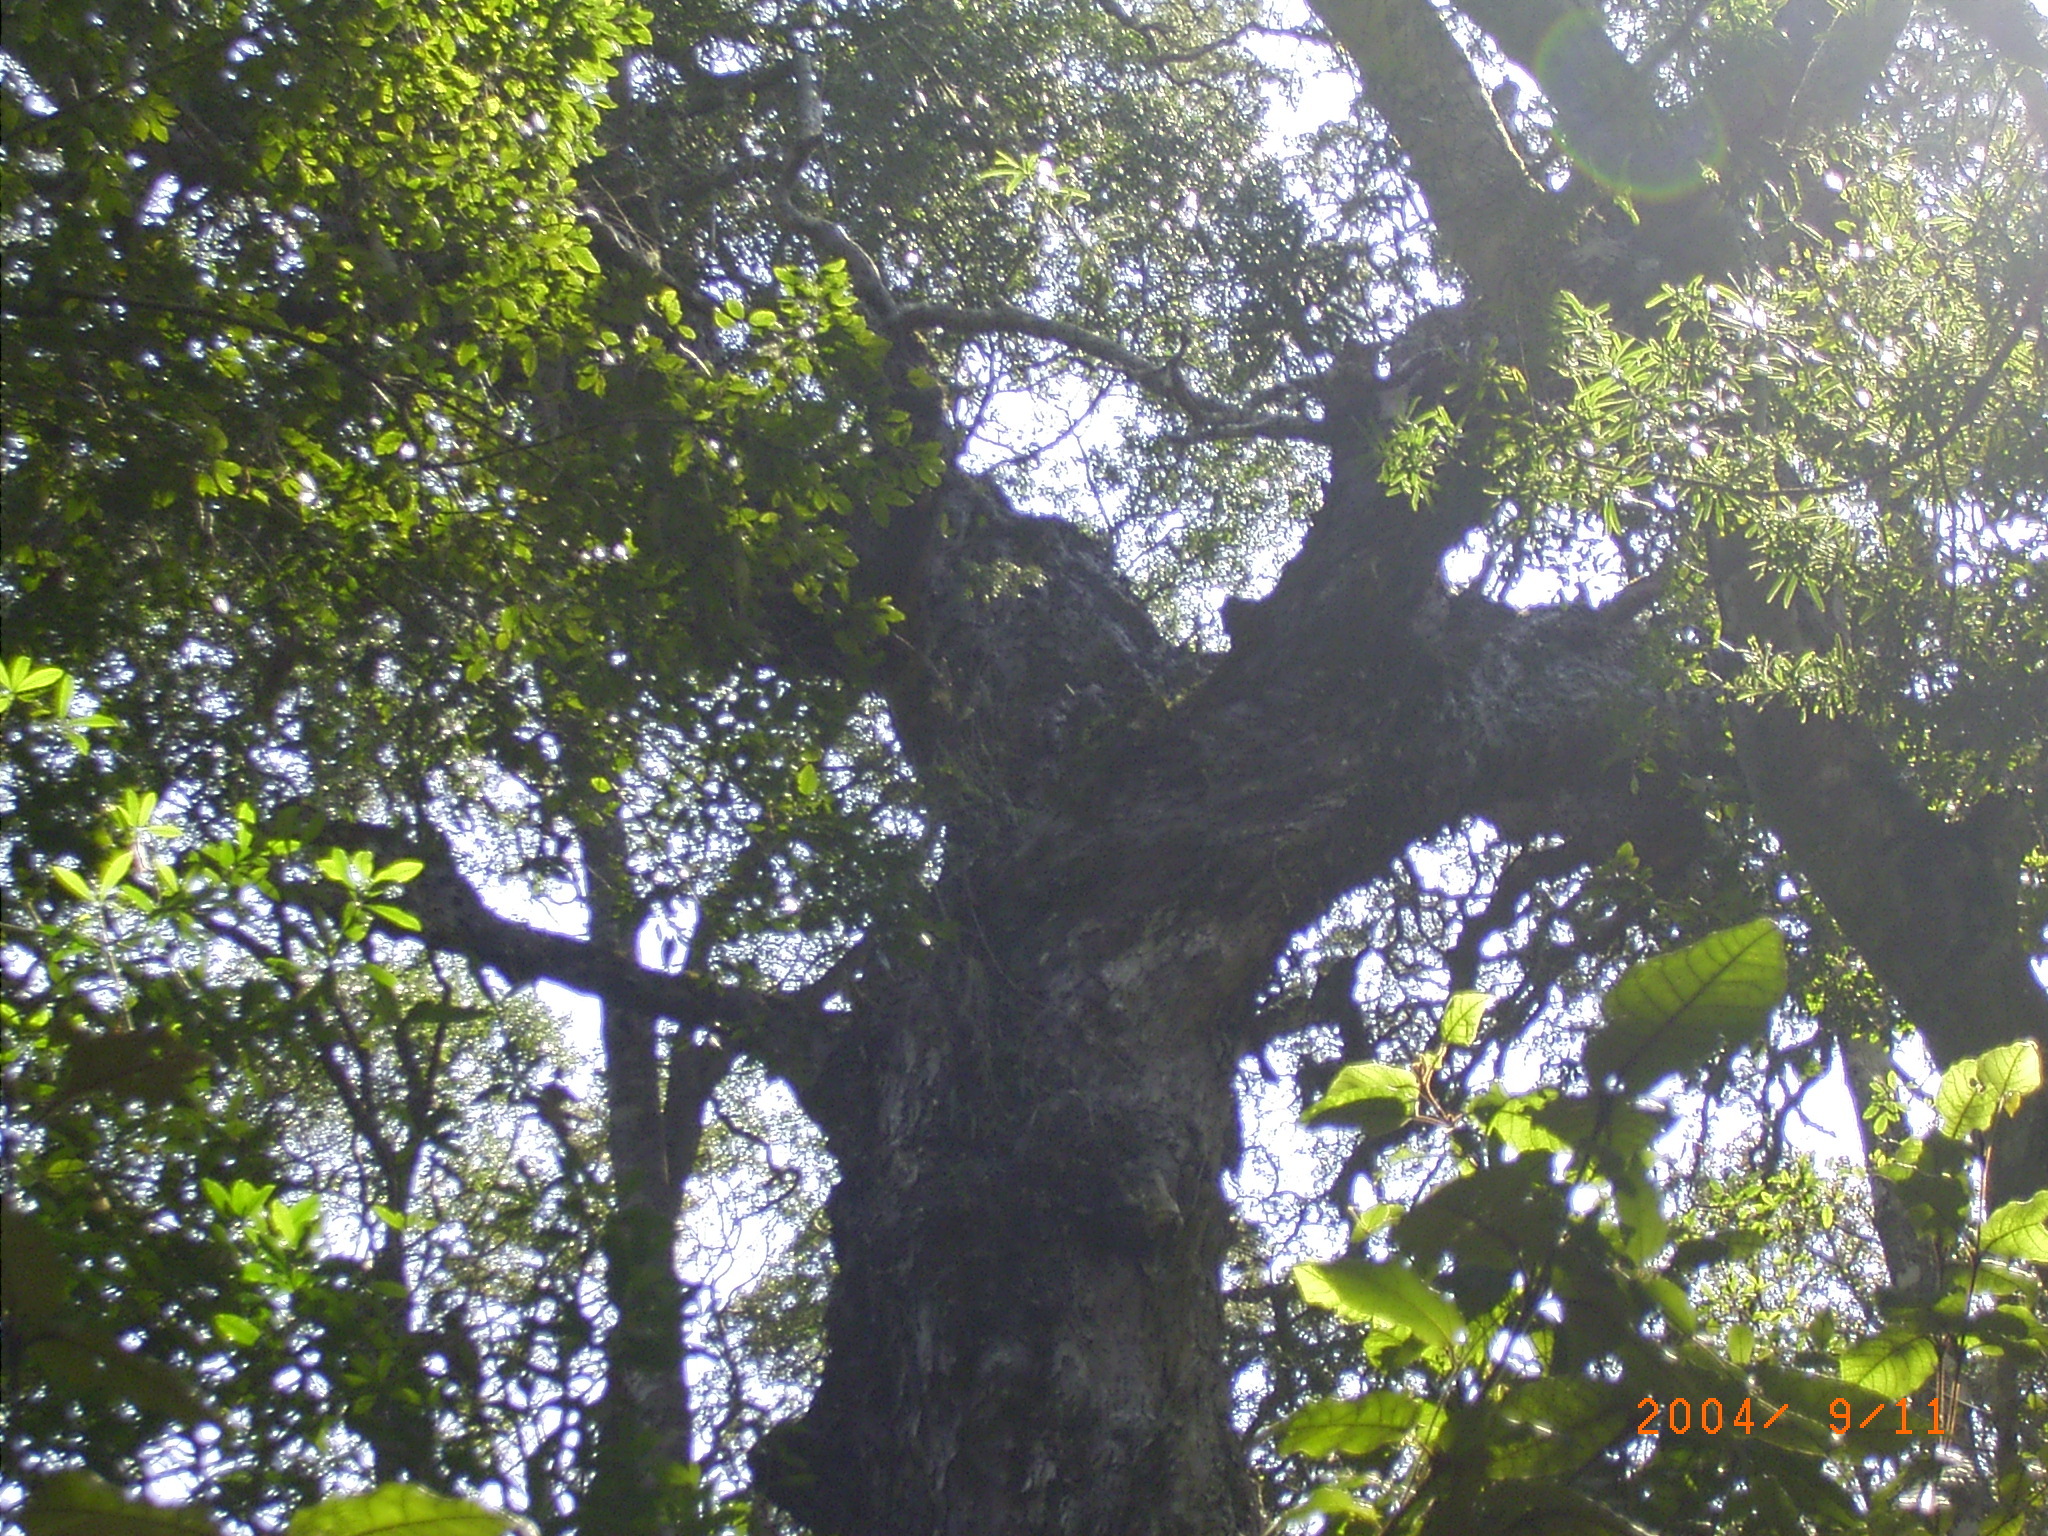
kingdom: Plantae
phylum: Tracheophyta
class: Pinopsida
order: Pinales
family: Podocarpaceae
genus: Afrocarpus
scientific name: Afrocarpus falcatus
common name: Bastard yellowwood
